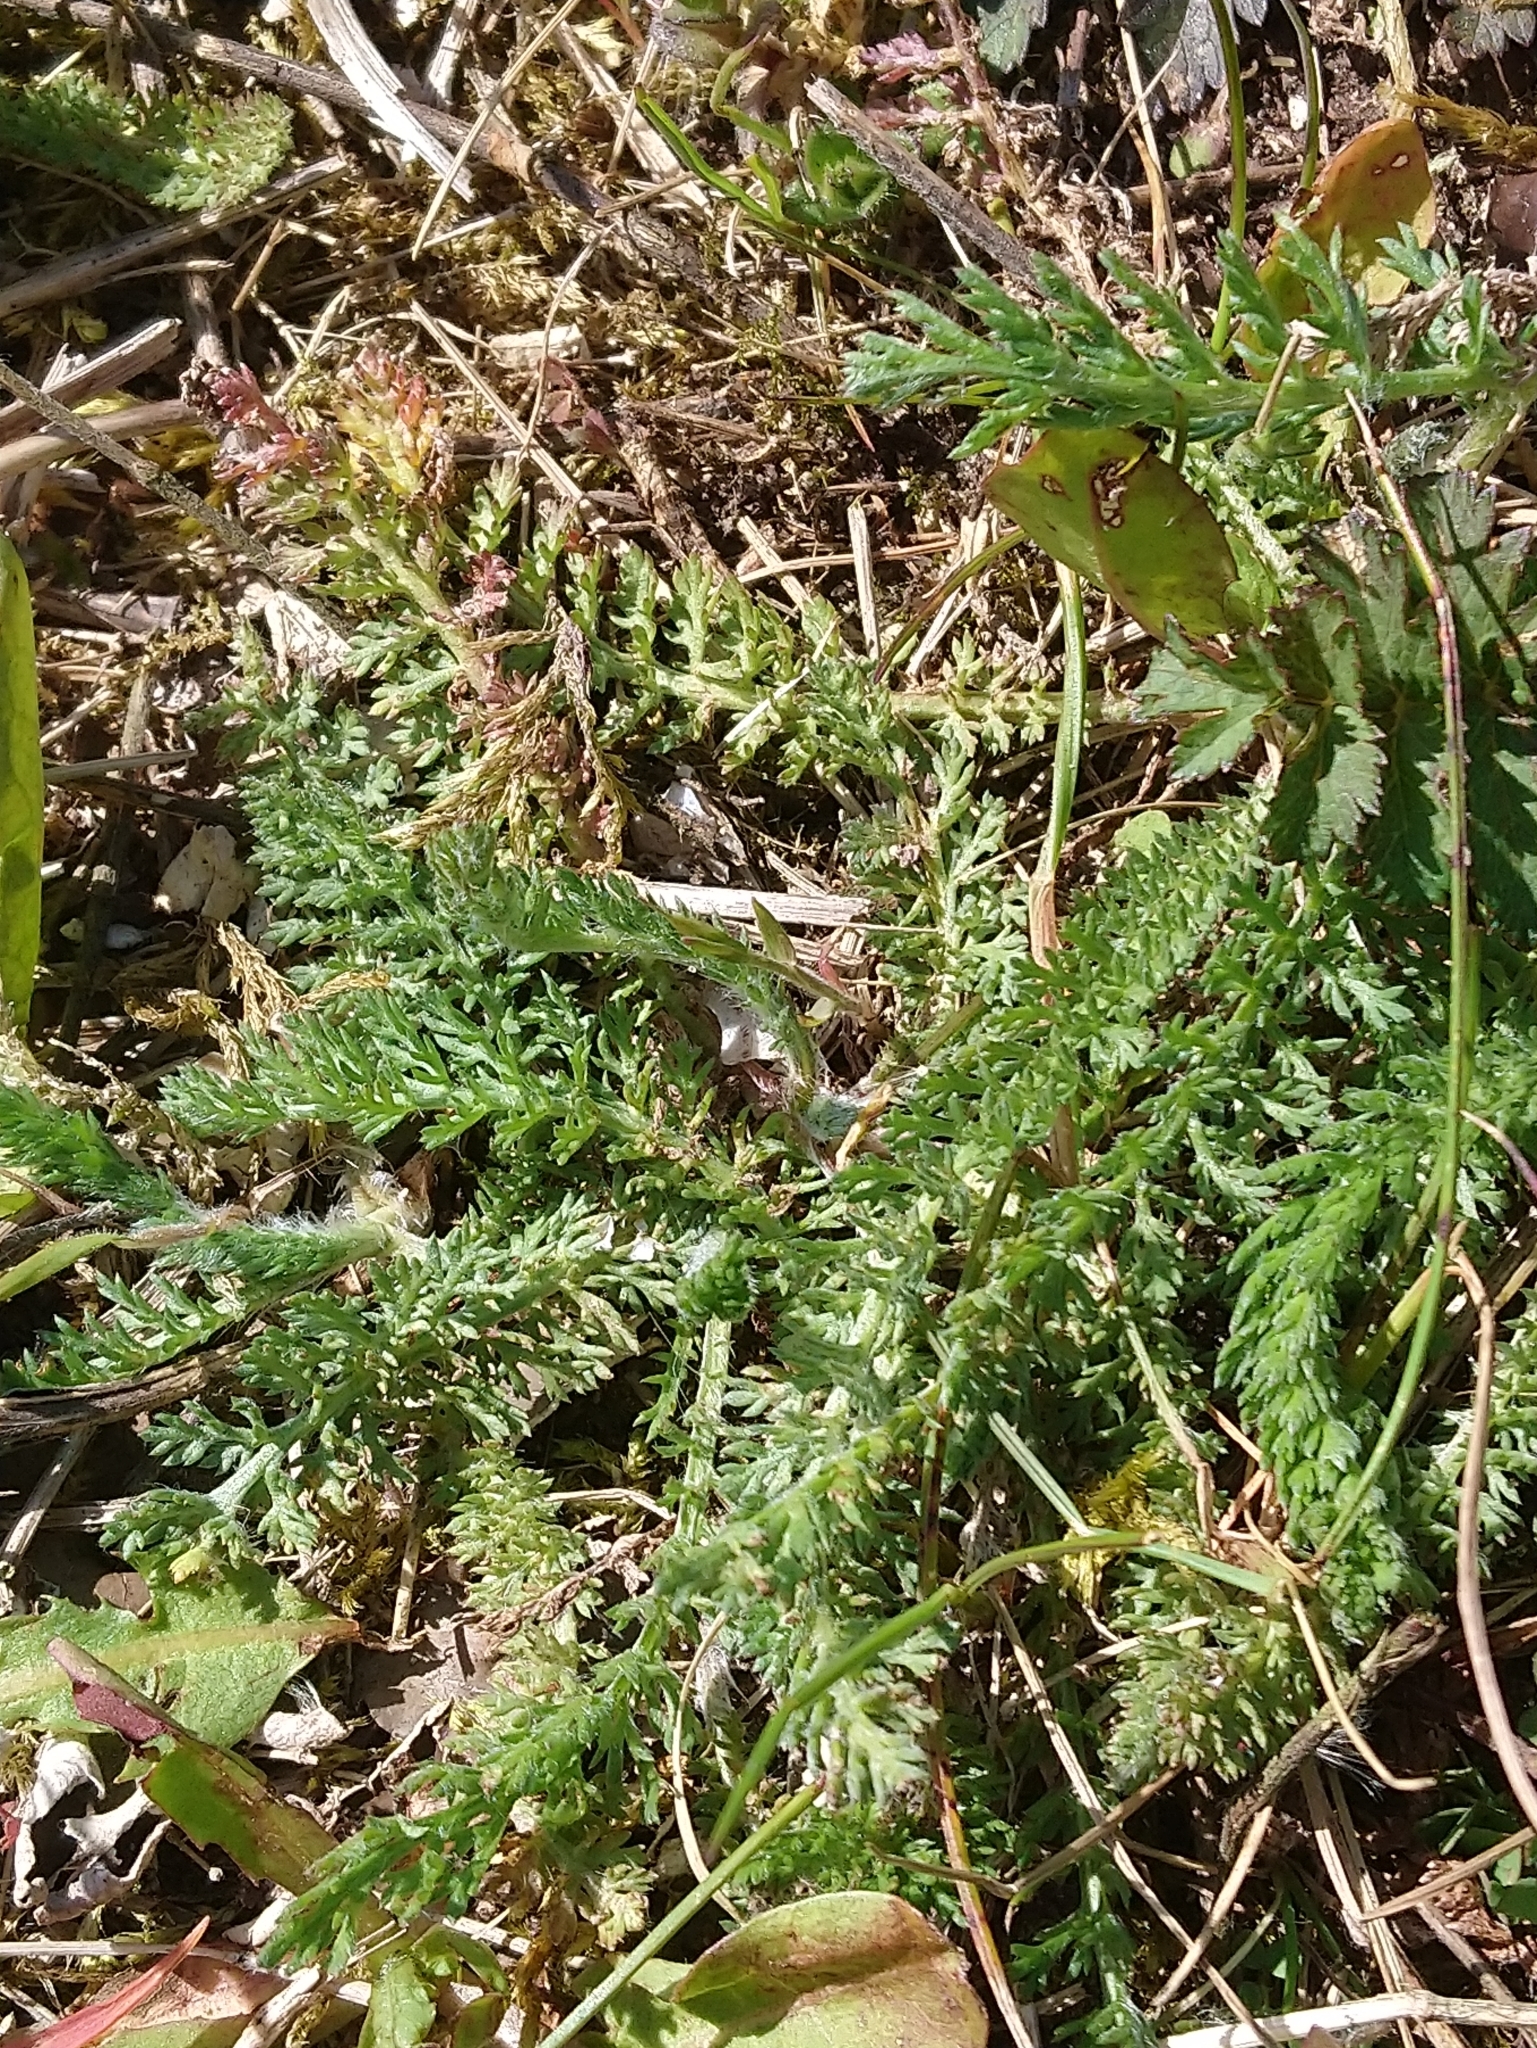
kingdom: Plantae
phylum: Tracheophyta
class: Magnoliopsida
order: Asterales
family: Asteraceae
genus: Achillea
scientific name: Achillea millefolium
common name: Yarrow
